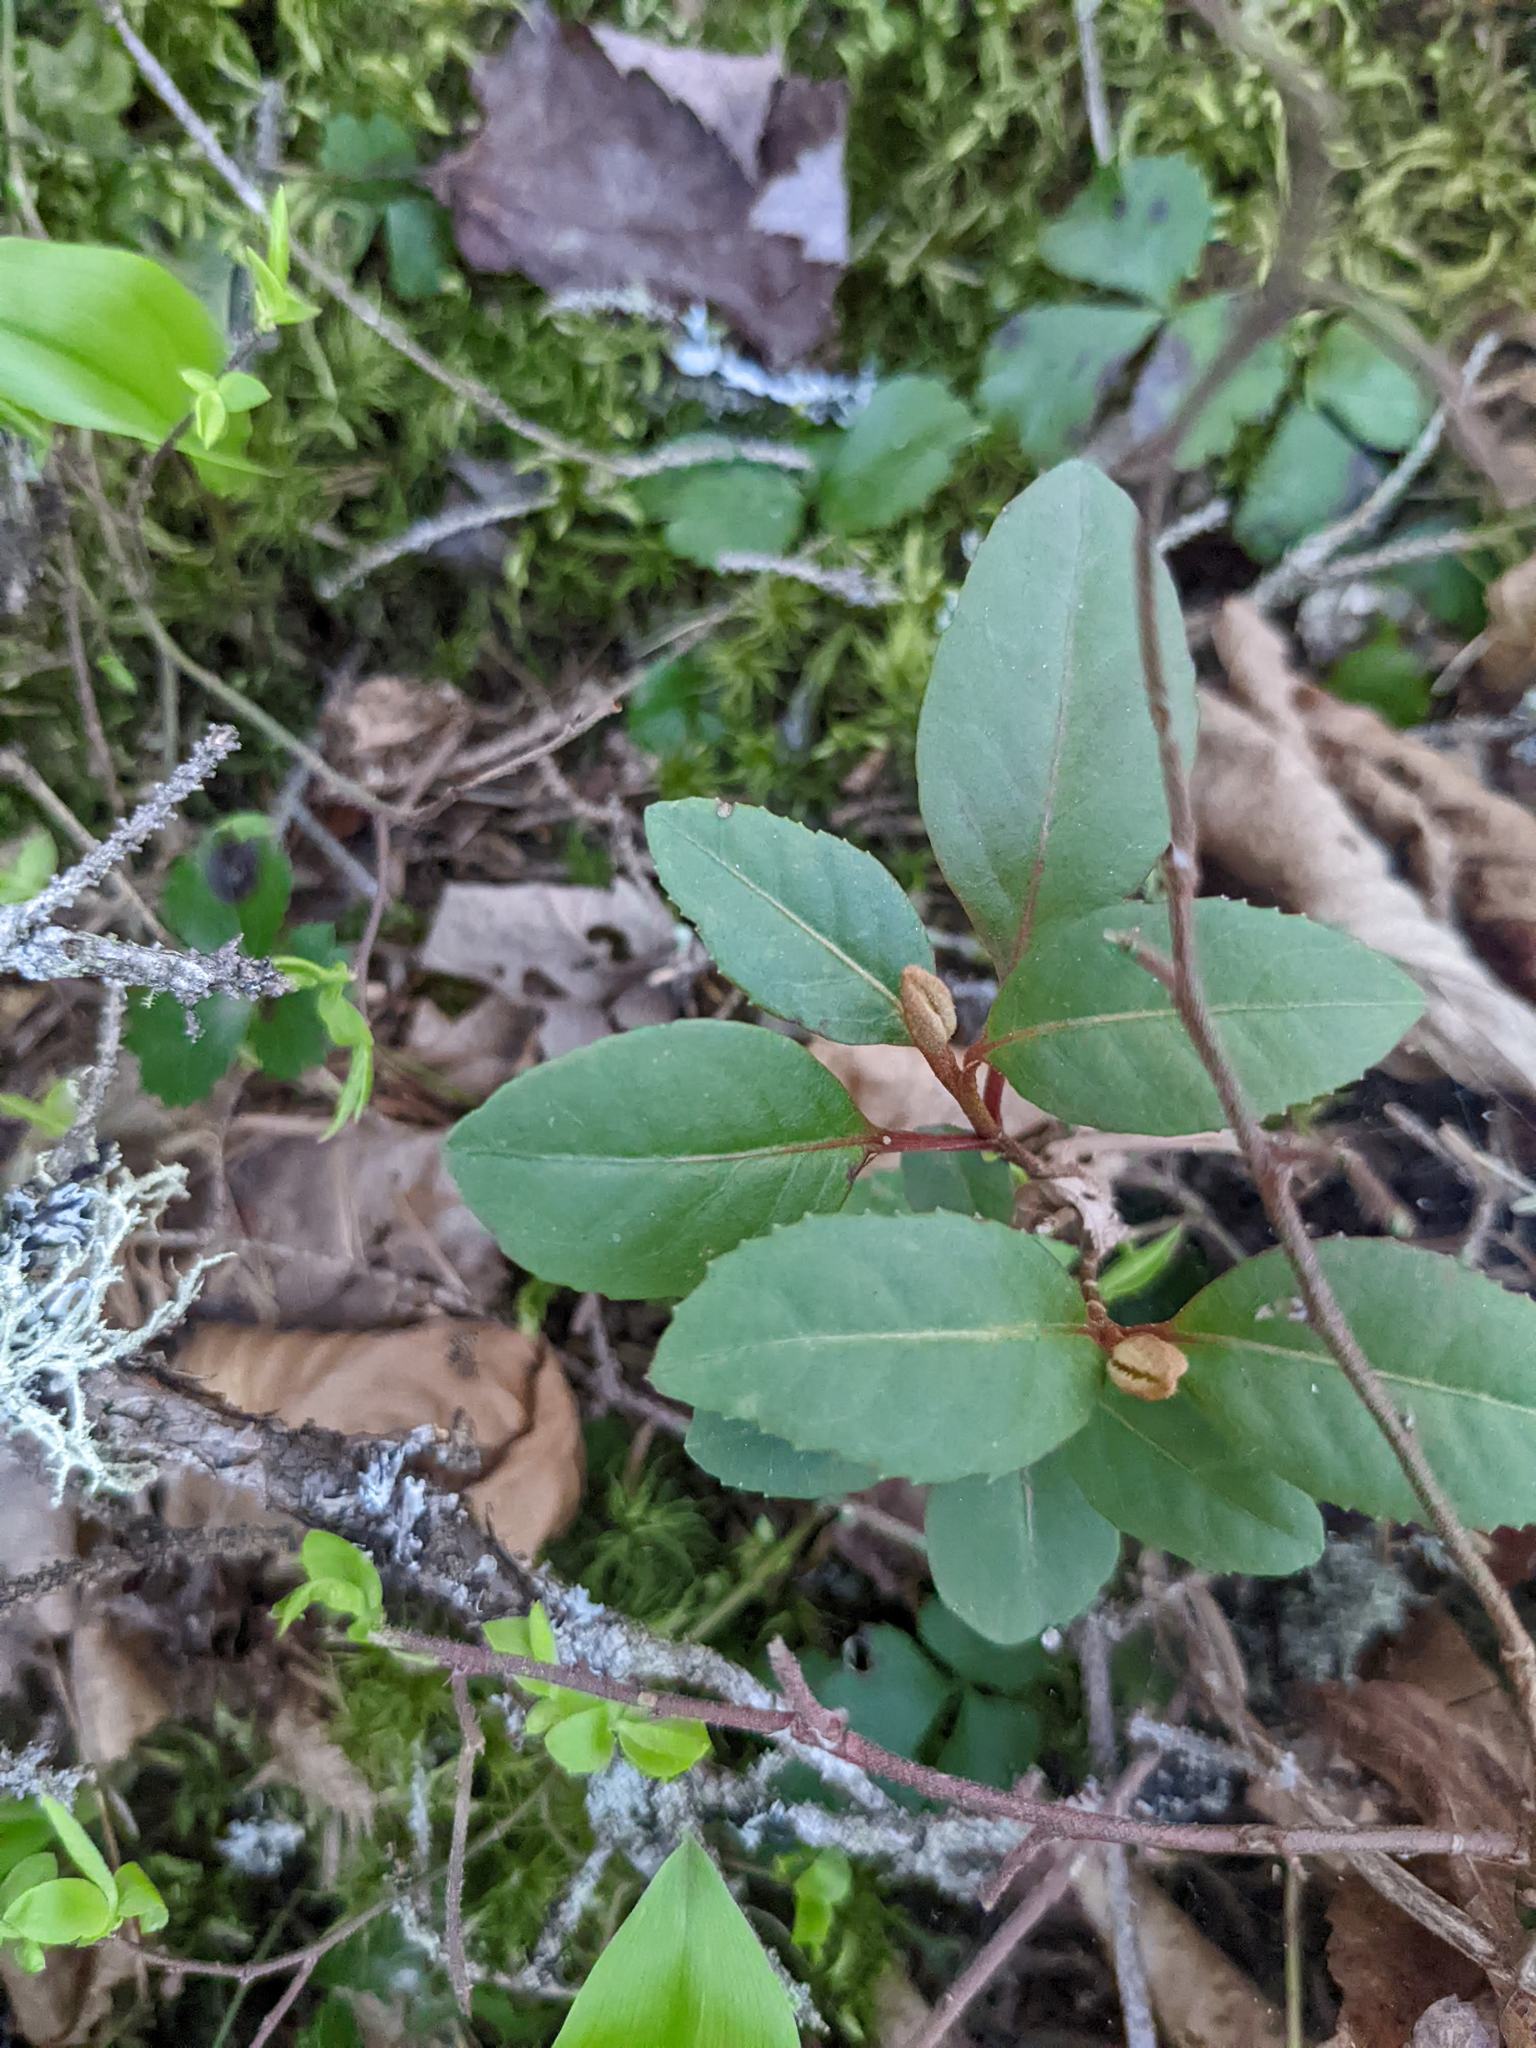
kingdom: Plantae
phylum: Tracheophyta
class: Magnoliopsida
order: Dipsacales
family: Viburnaceae
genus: Viburnum
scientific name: Viburnum cassinoides
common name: Swamp haw
